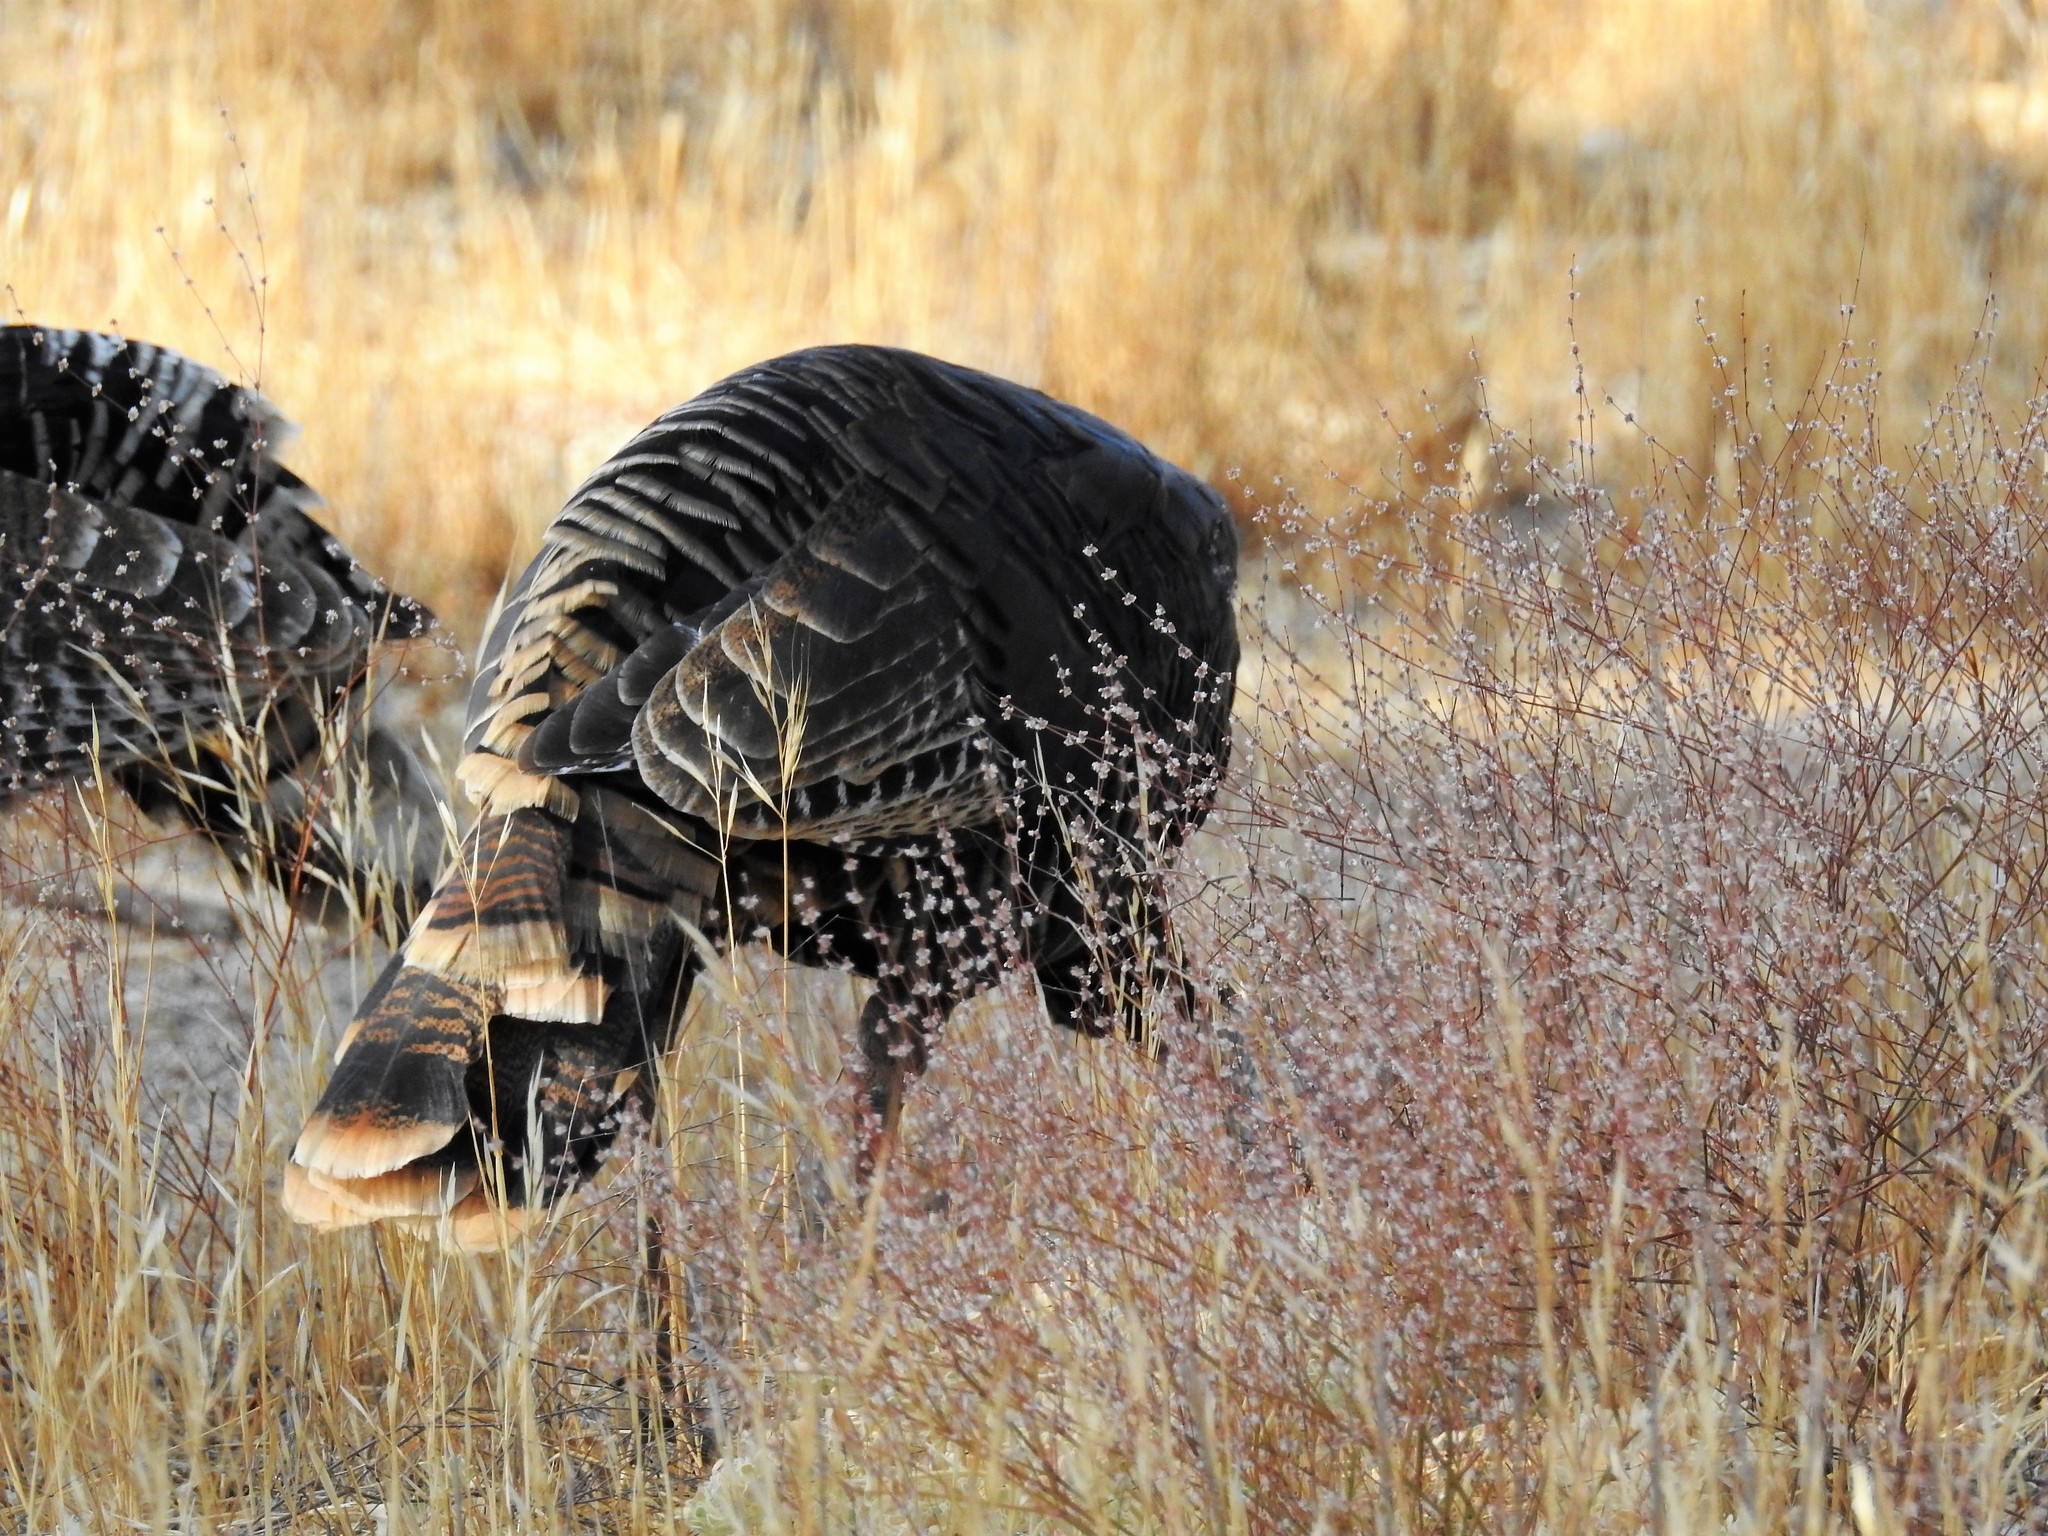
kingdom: Animalia
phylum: Chordata
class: Aves
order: Galliformes
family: Phasianidae
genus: Meleagris
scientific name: Meleagris gallopavo
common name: Wild turkey
